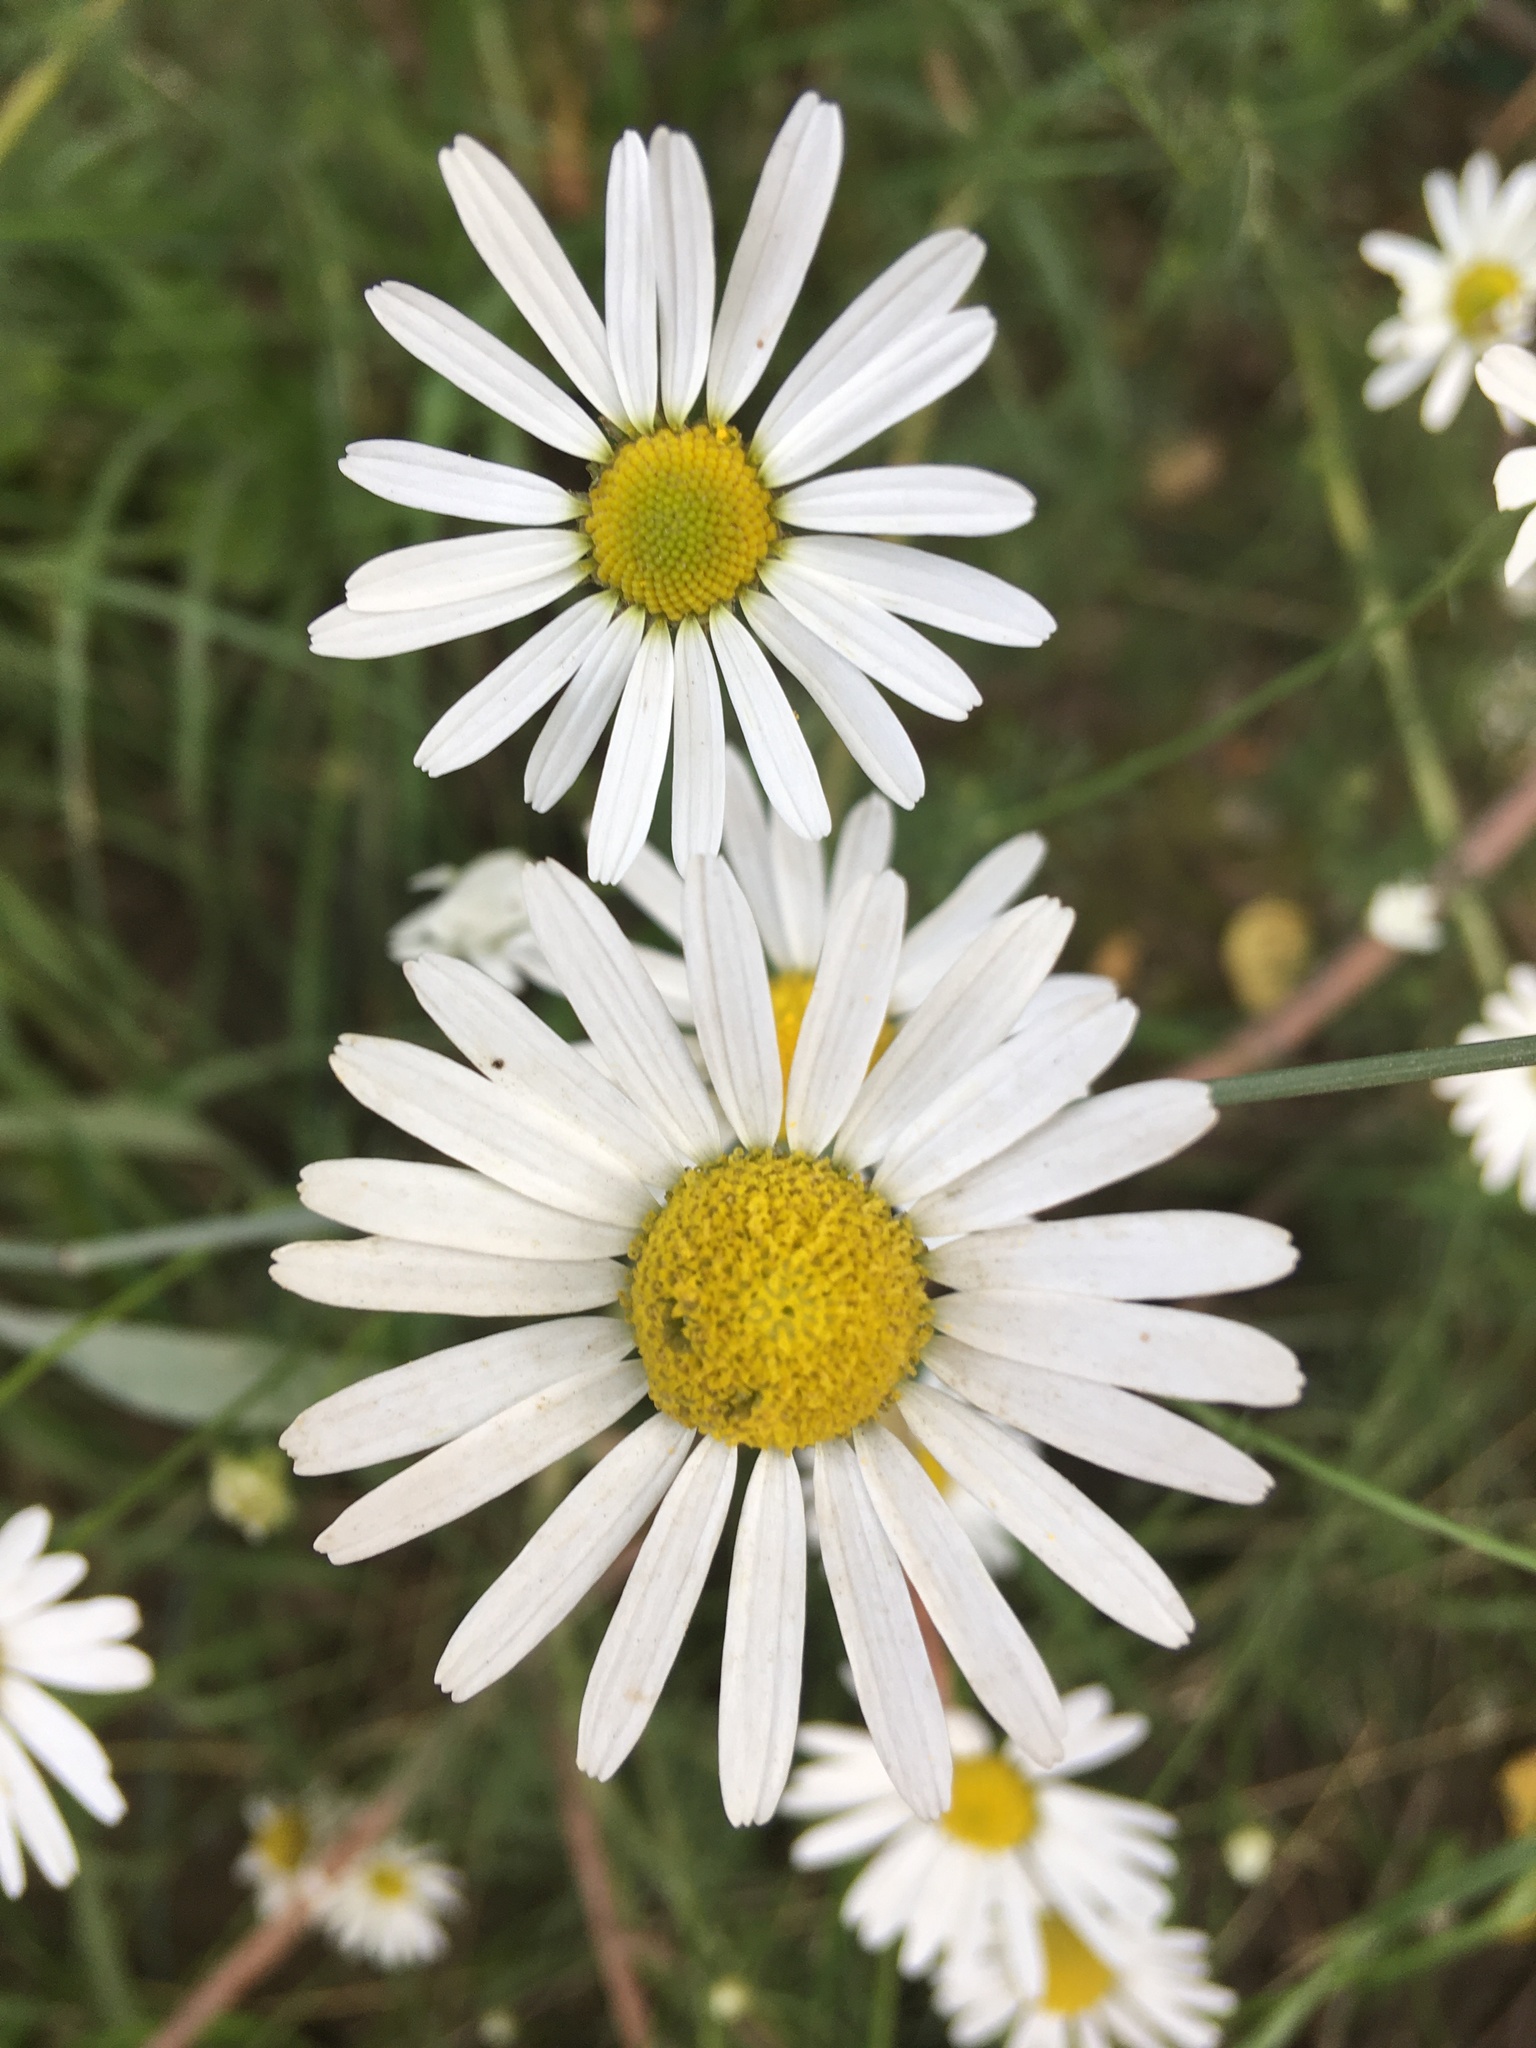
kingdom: Plantae
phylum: Tracheophyta
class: Magnoliopsida
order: Asterales
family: Asteraceae
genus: Tripleurospermum
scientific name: Tripleurospermum inodorum
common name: Scentless mayweed
